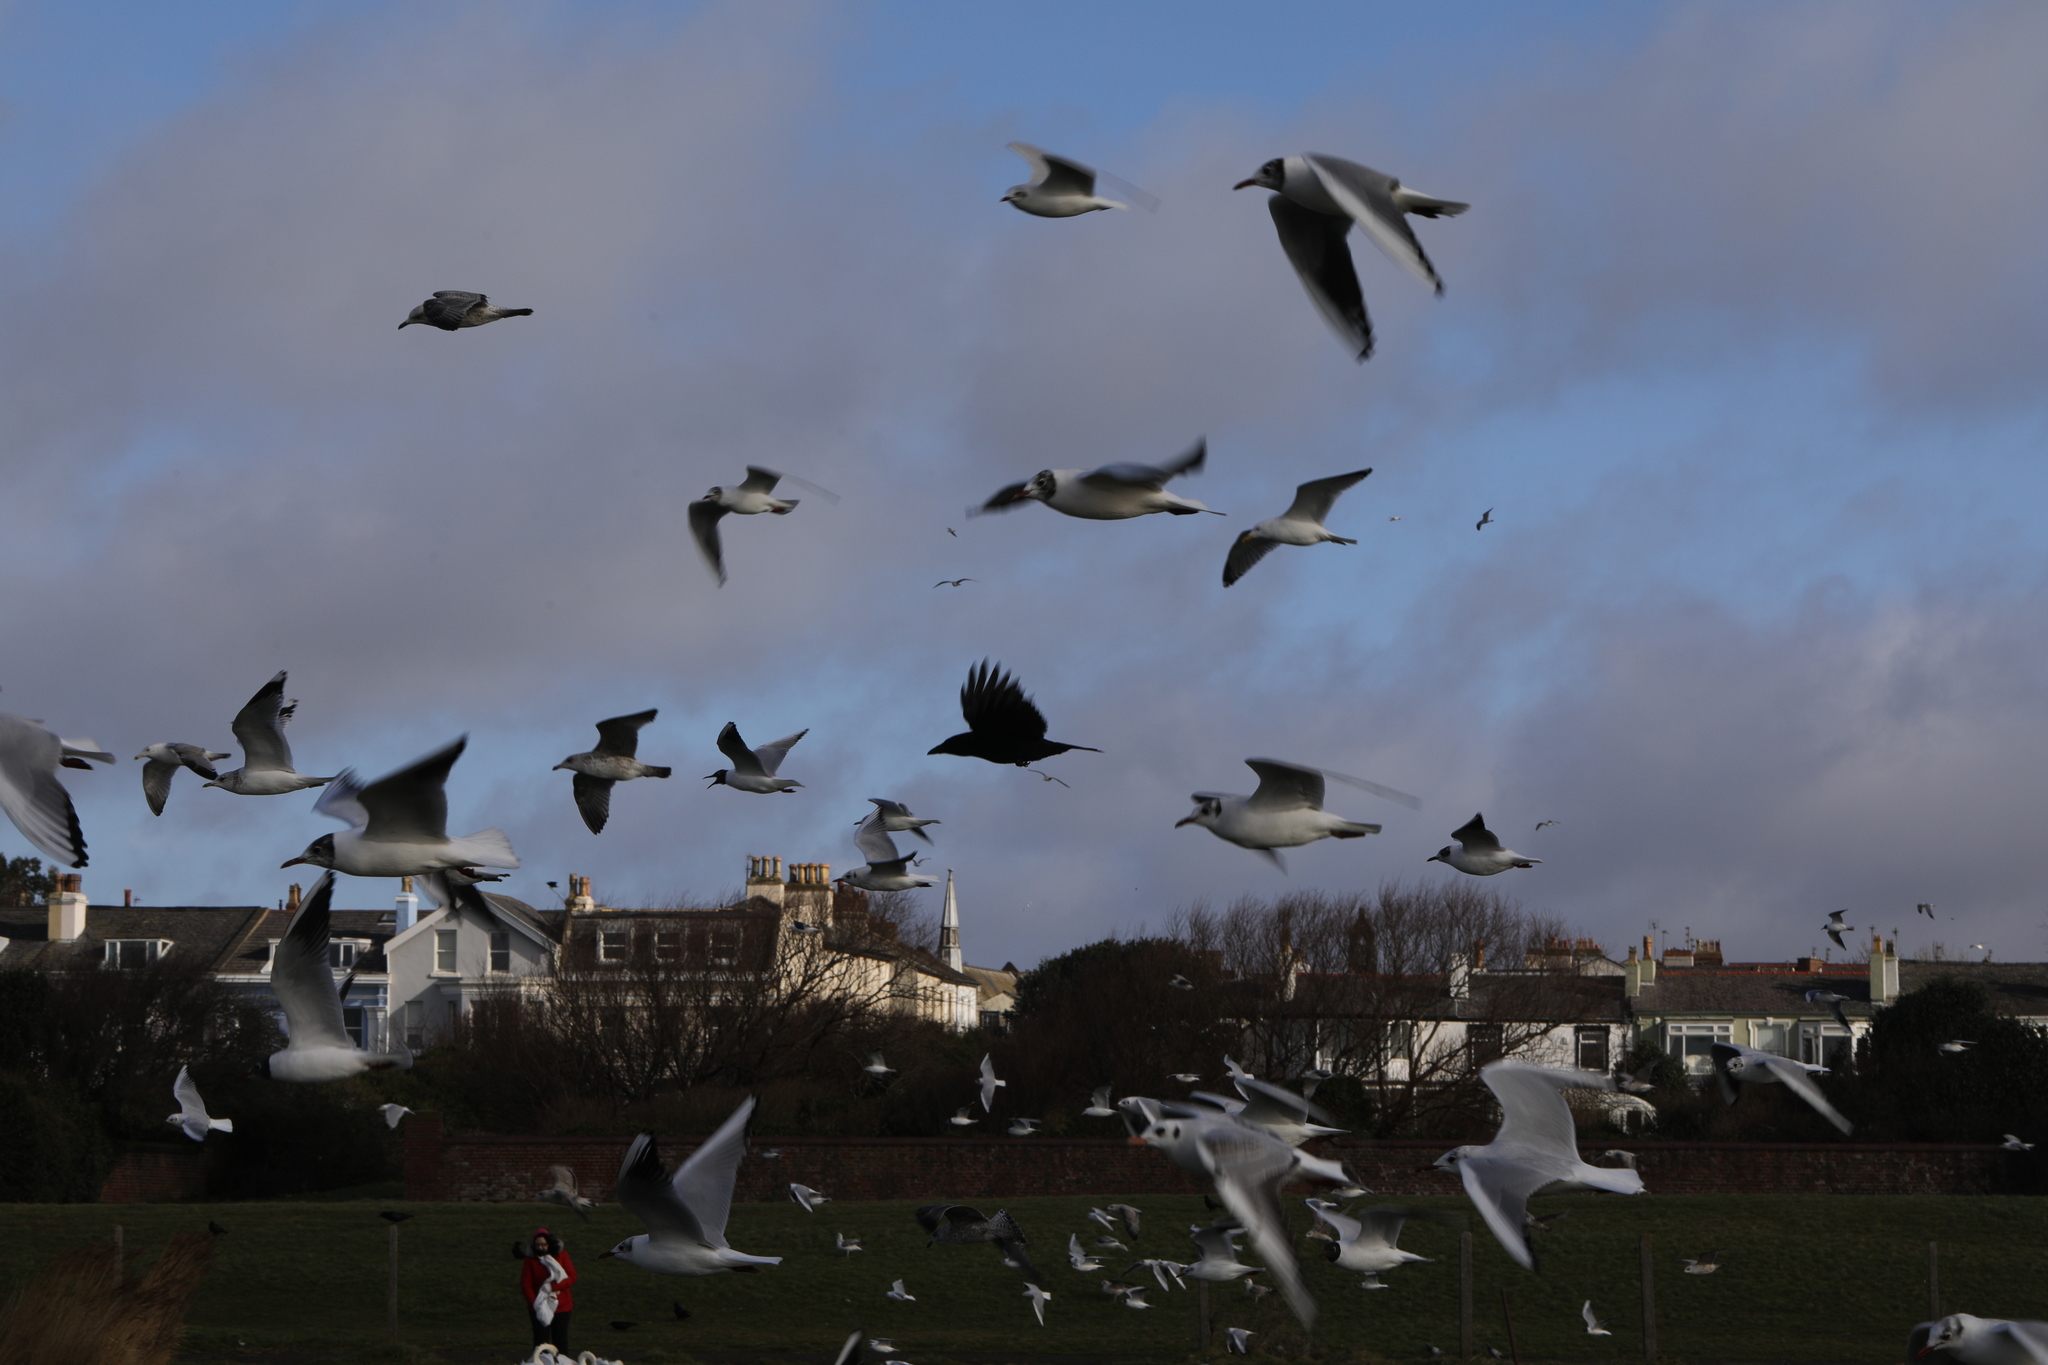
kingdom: Animalia
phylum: Chordata
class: Aves
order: Passeriformes
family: Corvidae
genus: Corvus
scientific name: Corvus corone
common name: Carrion crow
